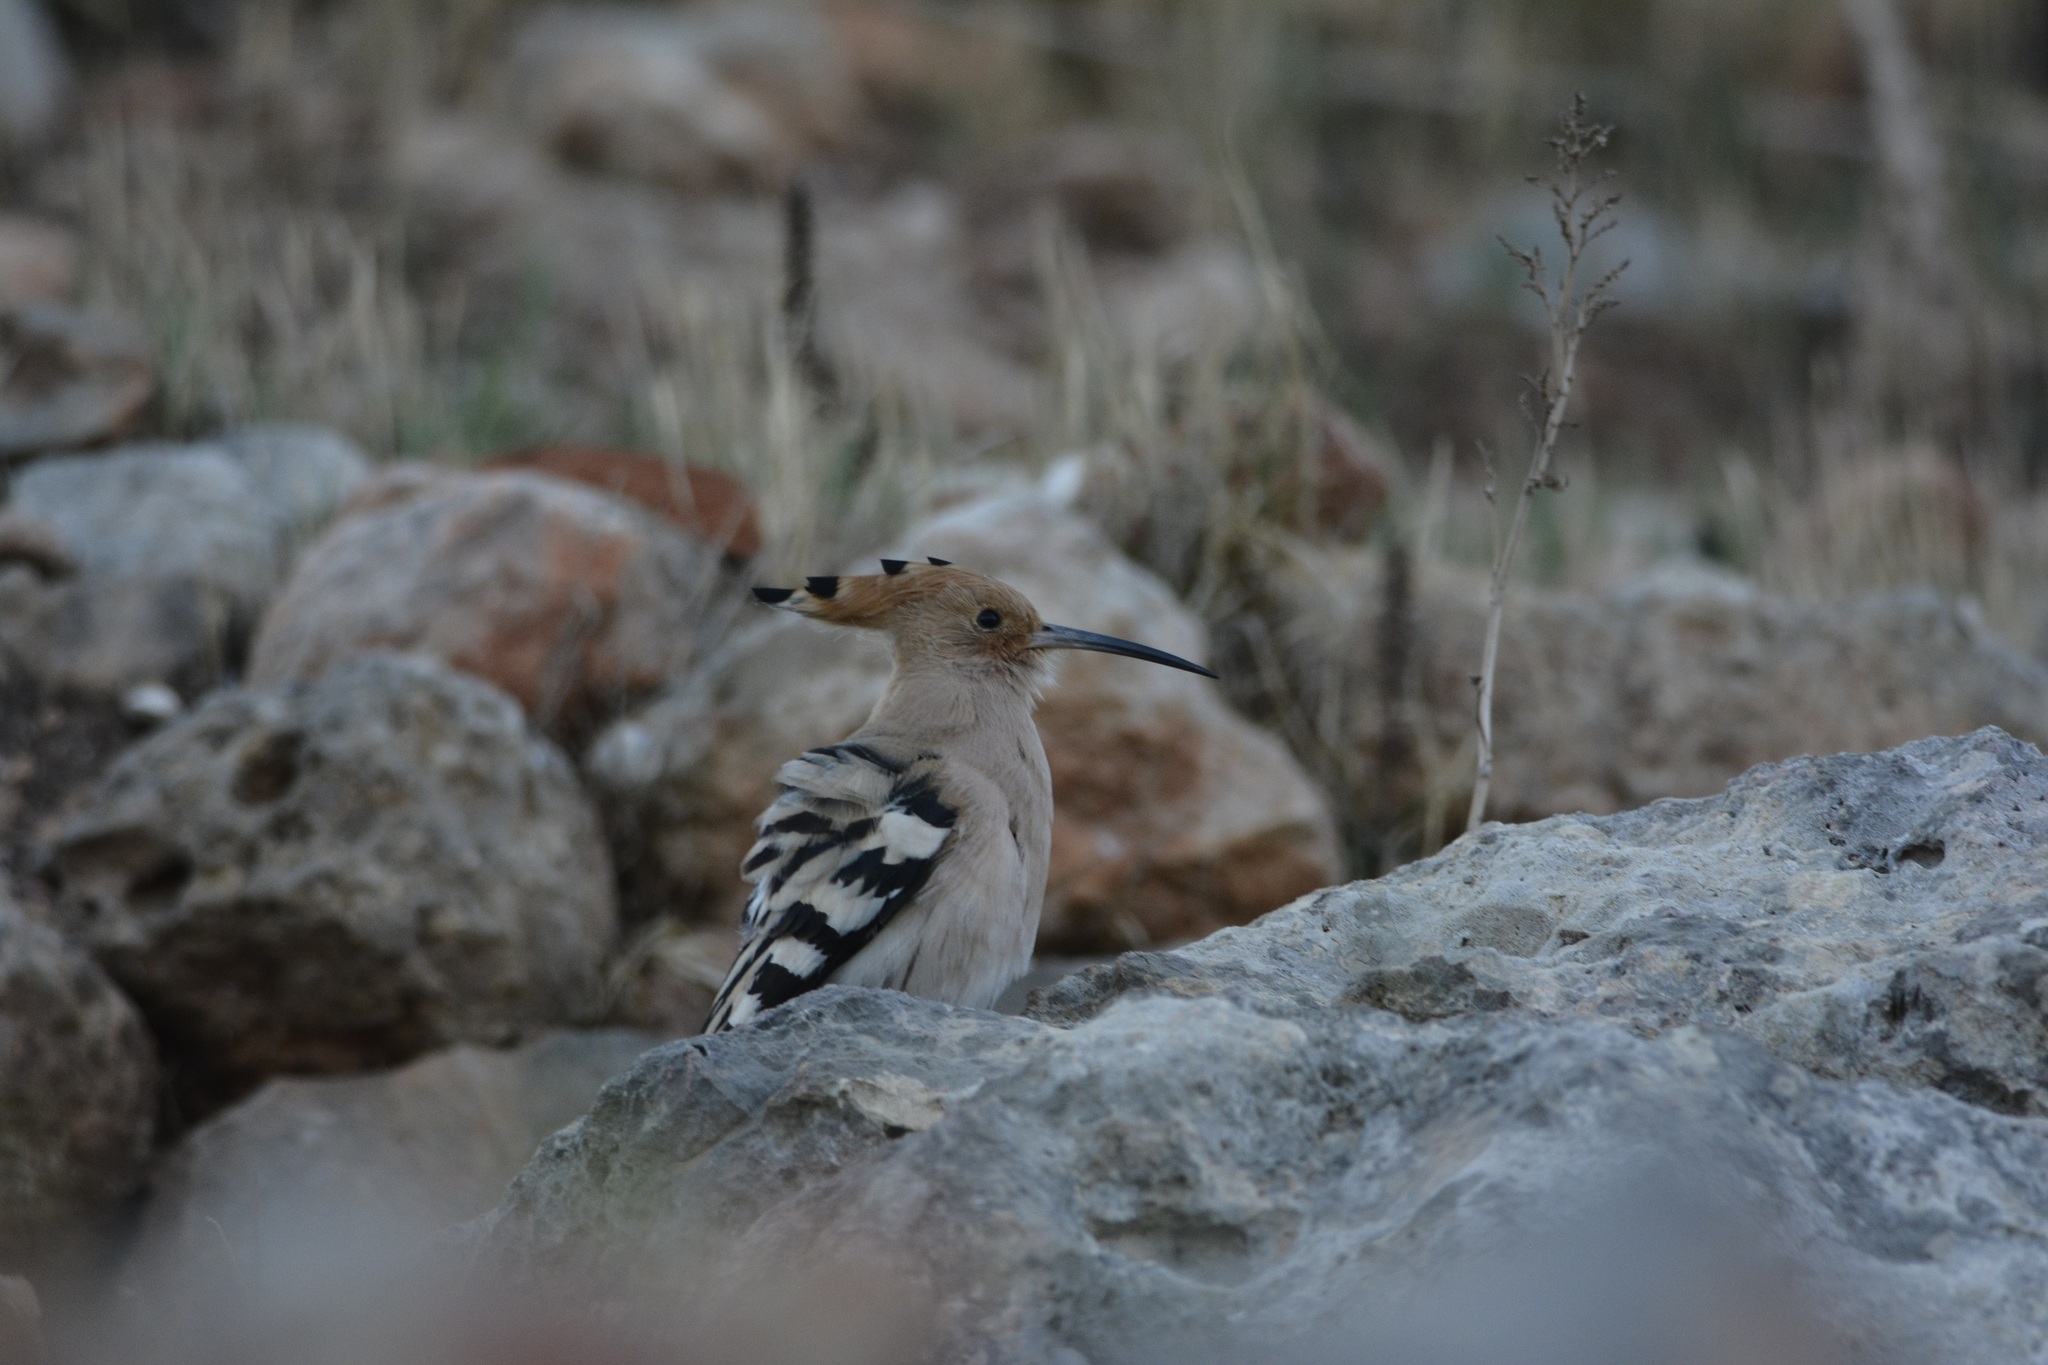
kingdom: Animalia
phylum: Chordata
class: Aves
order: Bucerotiformes
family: Upupidae
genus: Upupa
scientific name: Upupa epops
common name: Eurasian hoopoe
